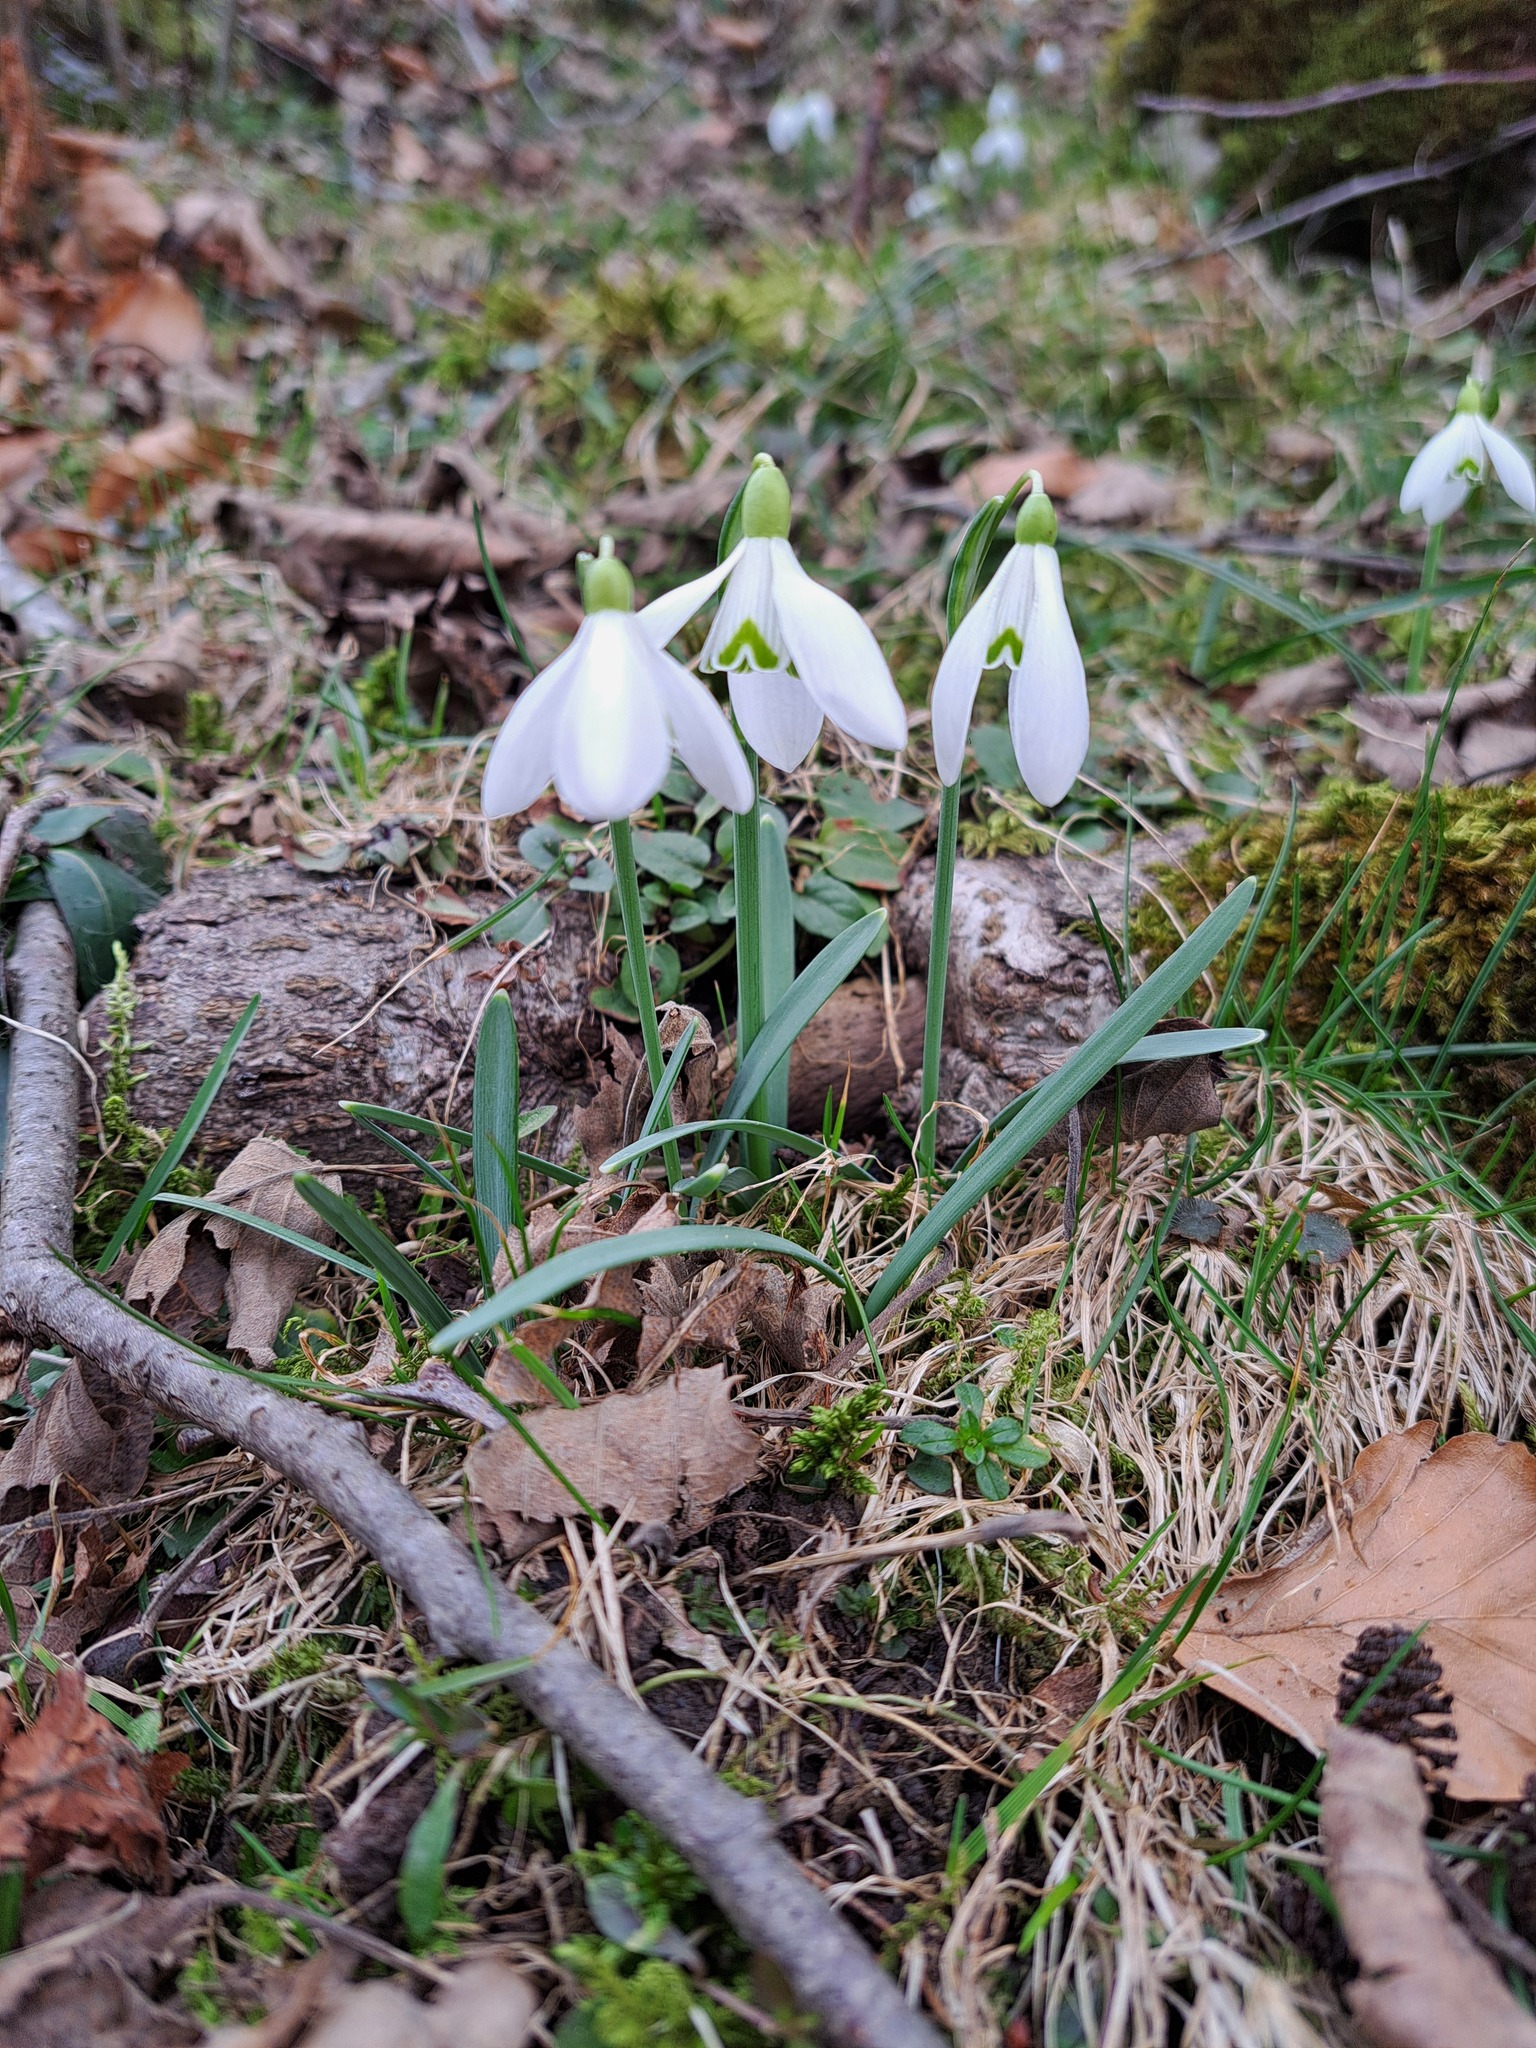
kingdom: Plantae
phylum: Tracheophyta
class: Liliopsida
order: Asparagales
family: Amaryllidaceae
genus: Galanthus
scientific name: Galanthus nivalis
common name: Snowdrop
